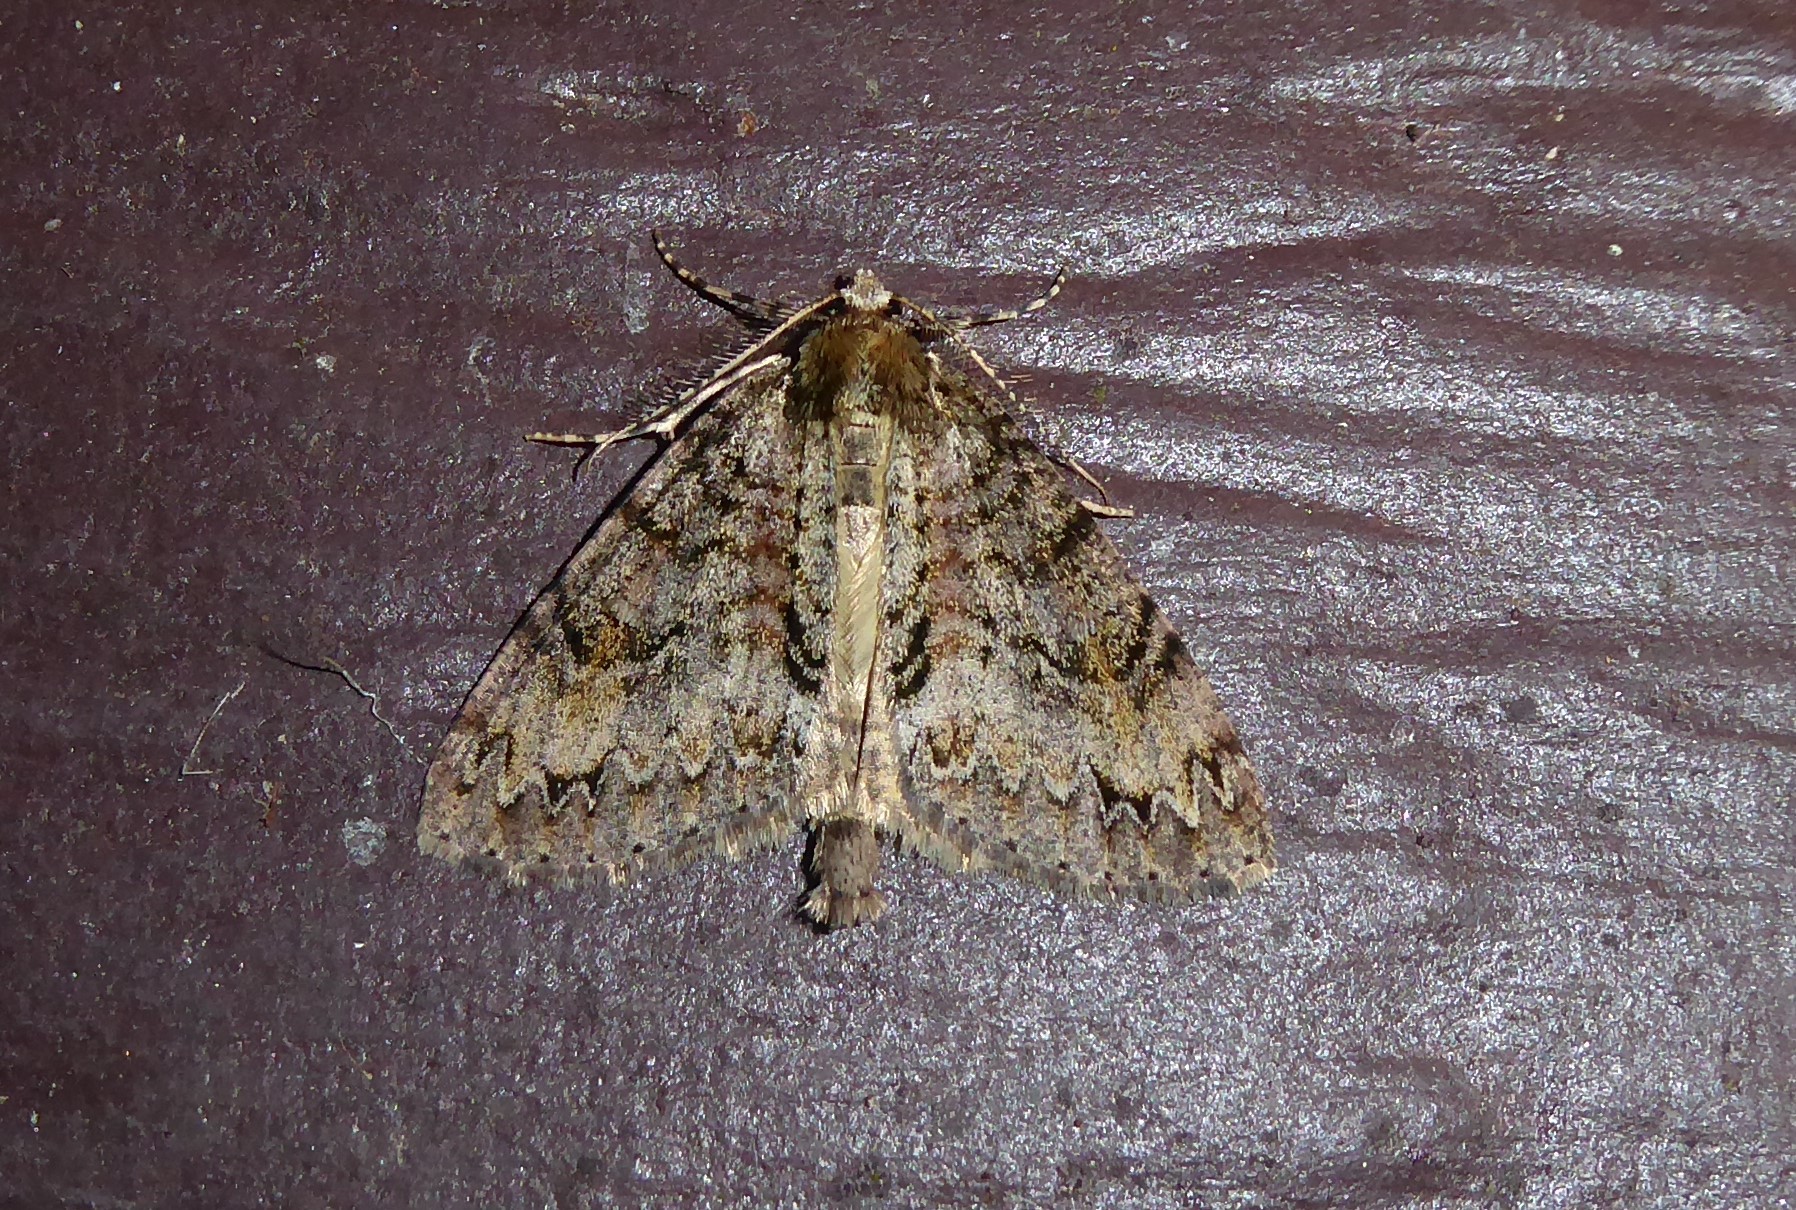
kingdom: Animalia
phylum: Arthropoda
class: Insecta
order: Lepidoptera
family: Geometridae
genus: Pseudocoremia
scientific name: Pseudocoremia suavis
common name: Common forest looper
